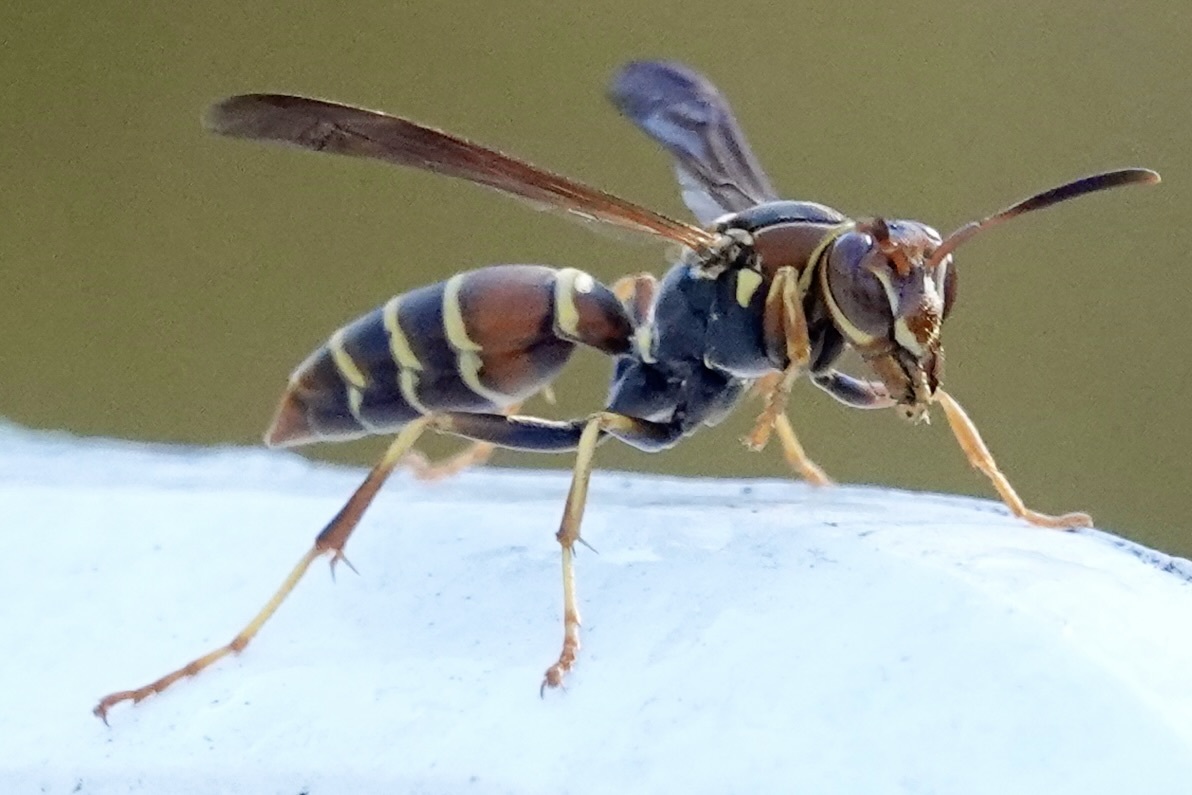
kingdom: Animalia
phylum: Arthropoda
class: Insecta
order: Hymenoptera
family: Eumenidae
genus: Polistes
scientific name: Polistes dorsalis
